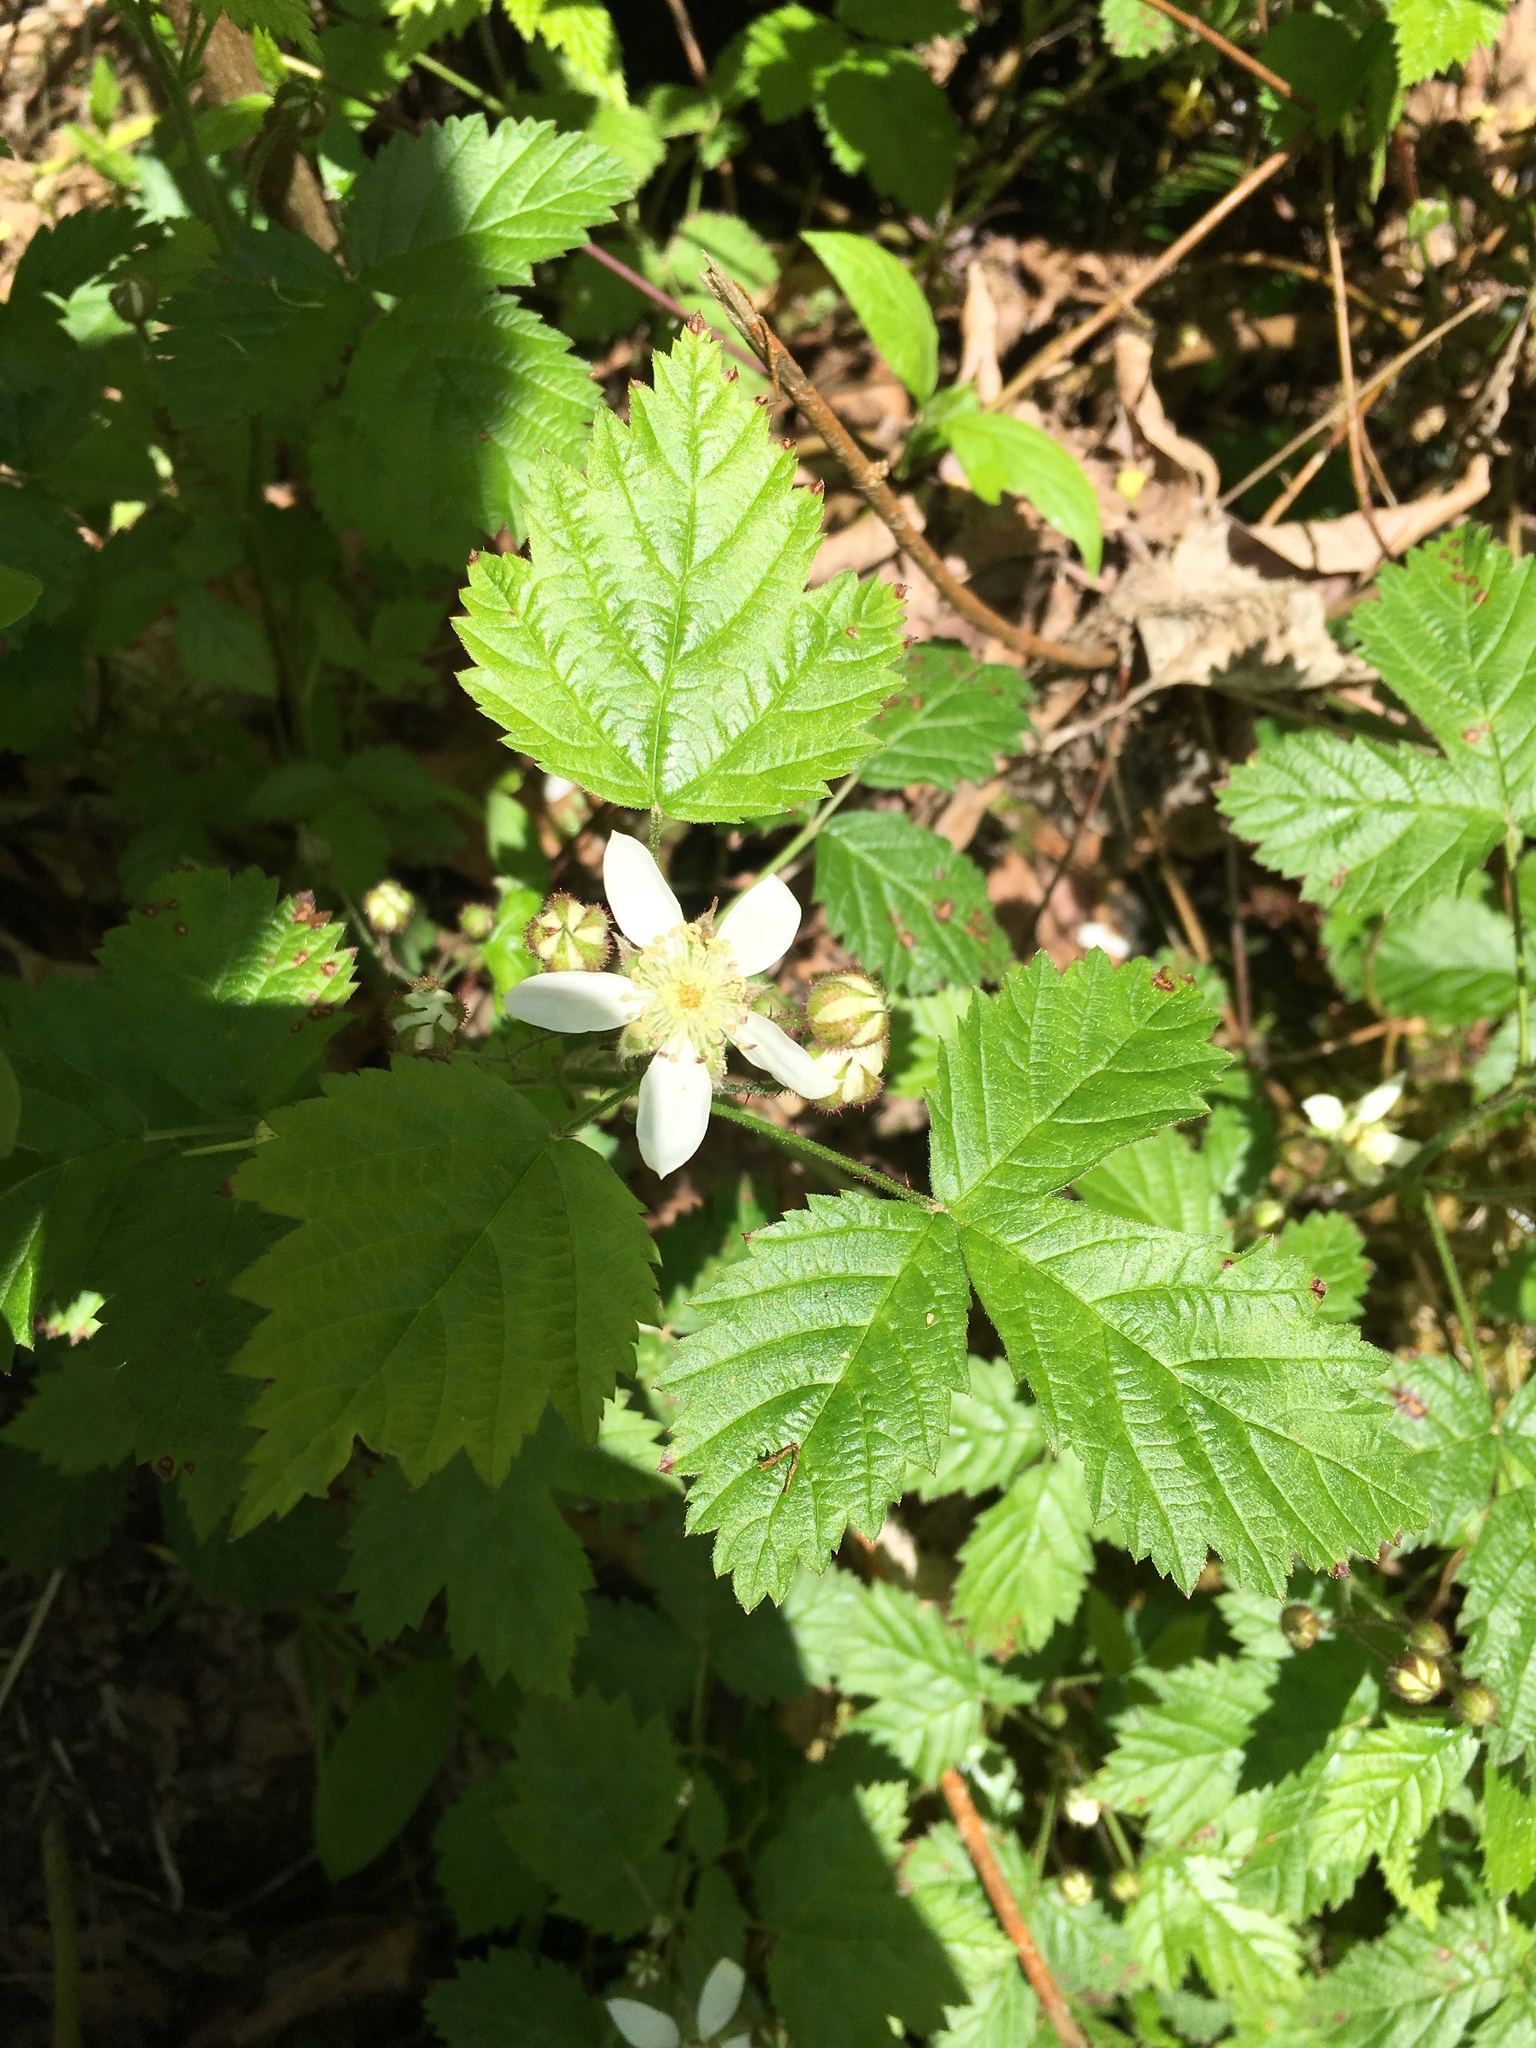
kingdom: Plantae
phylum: Tracheophyta
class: Magnoliopsida
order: Rosales
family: Rosaceae
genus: Rubus
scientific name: Rubus ursinus
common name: Pacific blackberry
